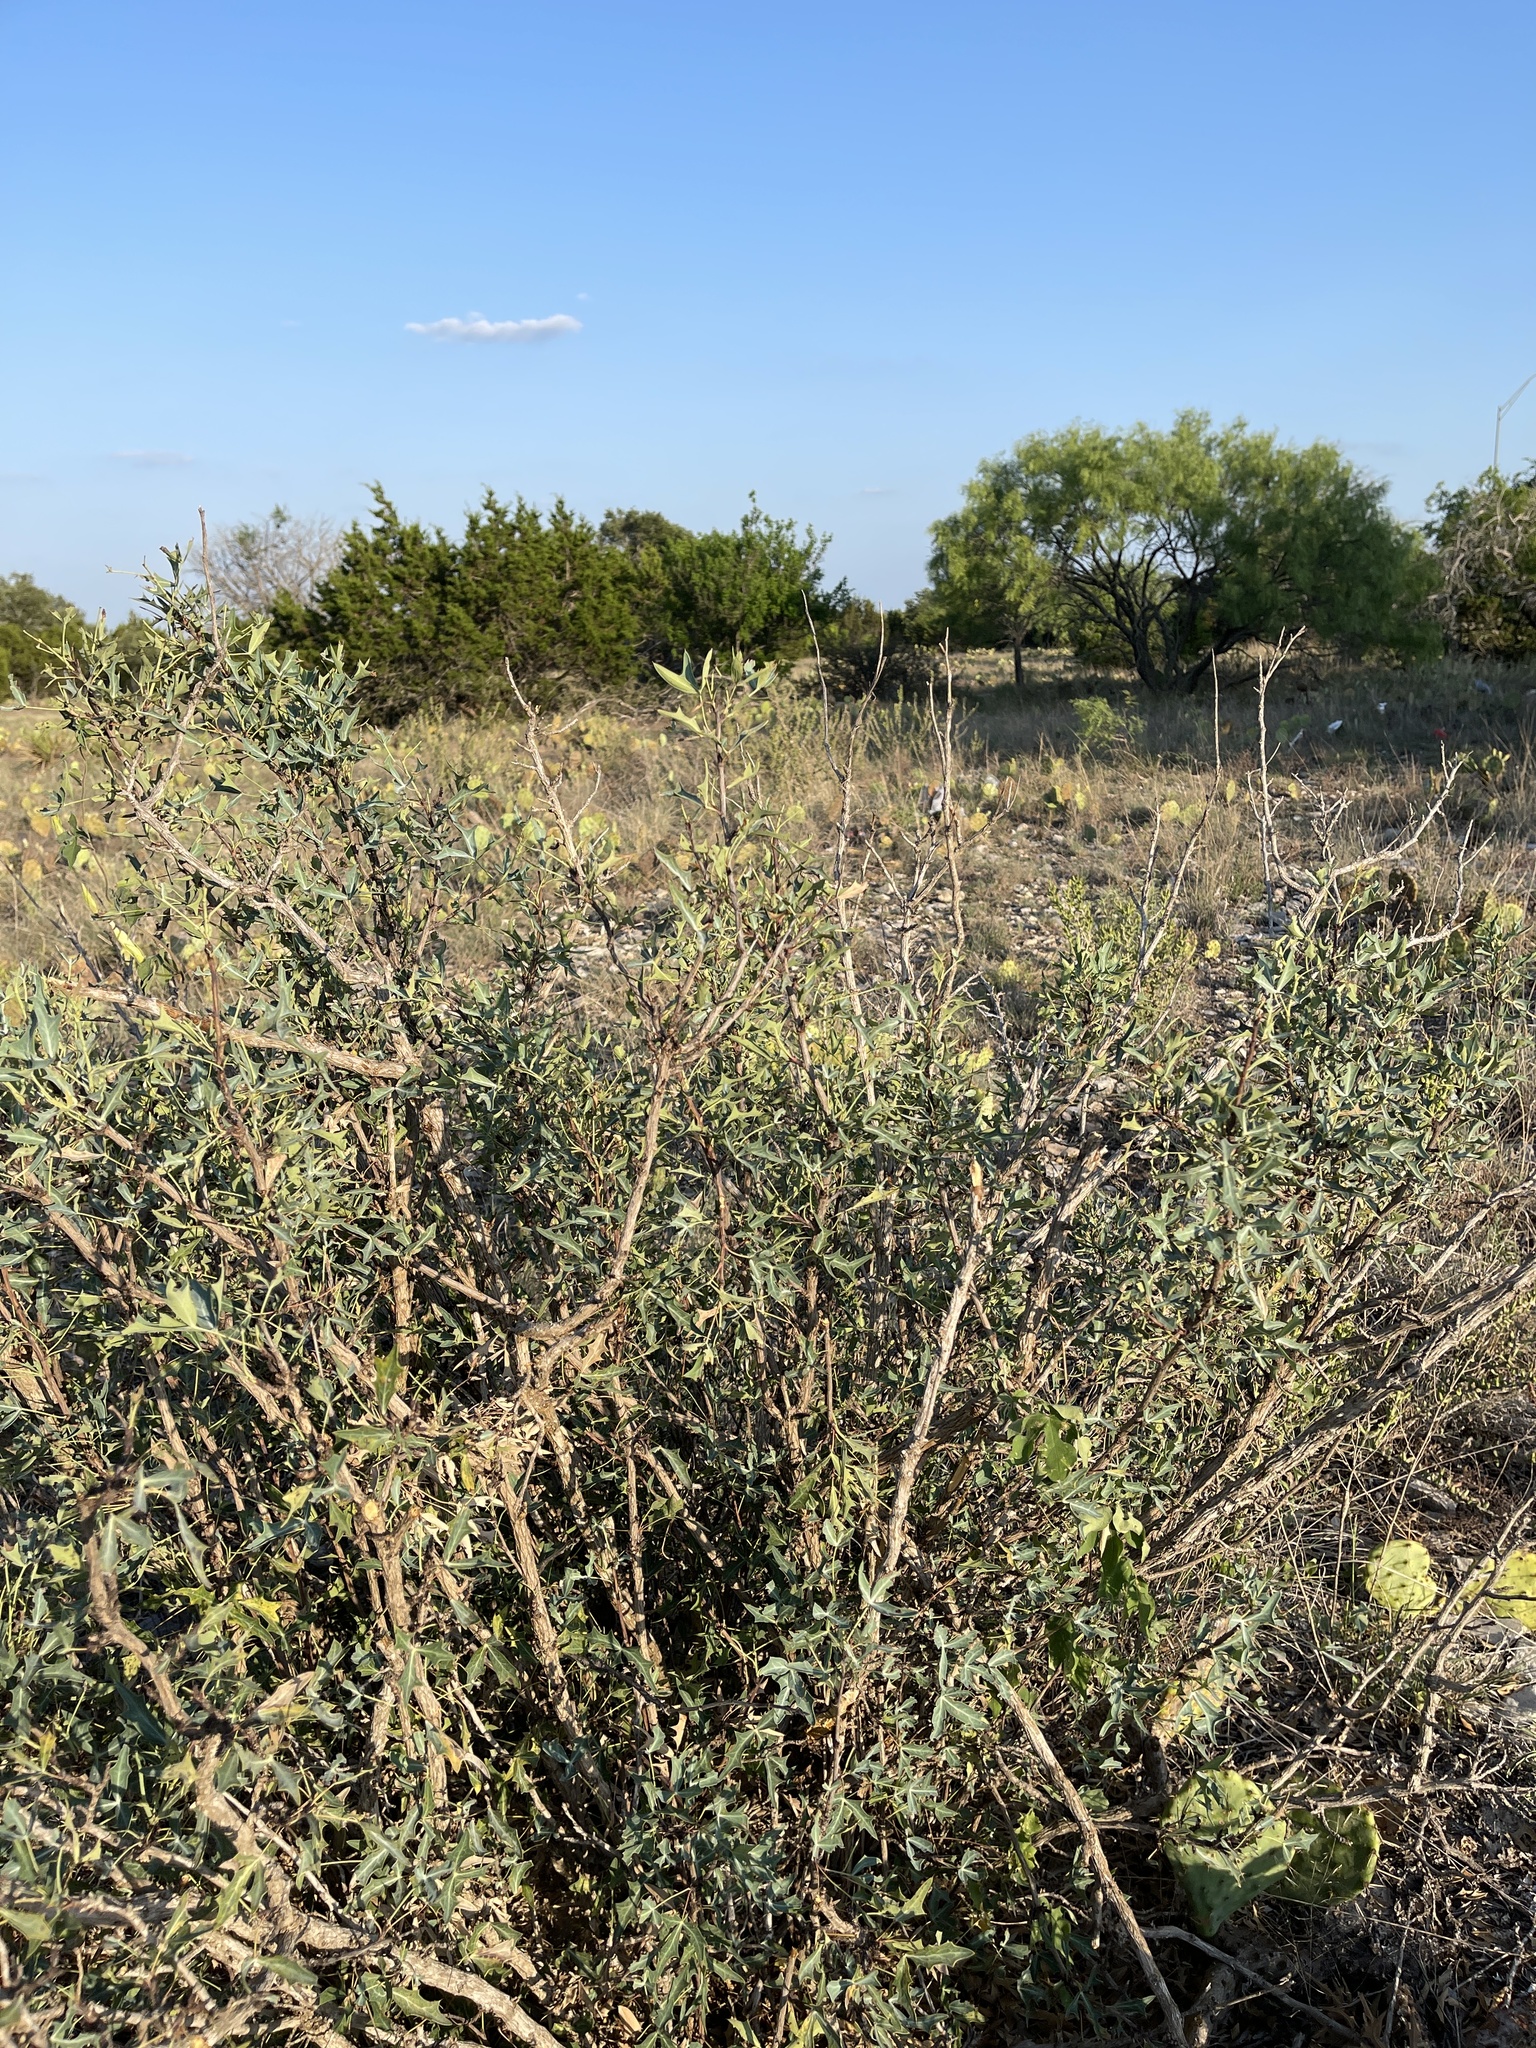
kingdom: Plantae
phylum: Tracheophyta
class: Magnoliopsida
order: Ranunculales
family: Berberidaceae
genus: Alloberberis
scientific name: Alloberberis trifoliolata
